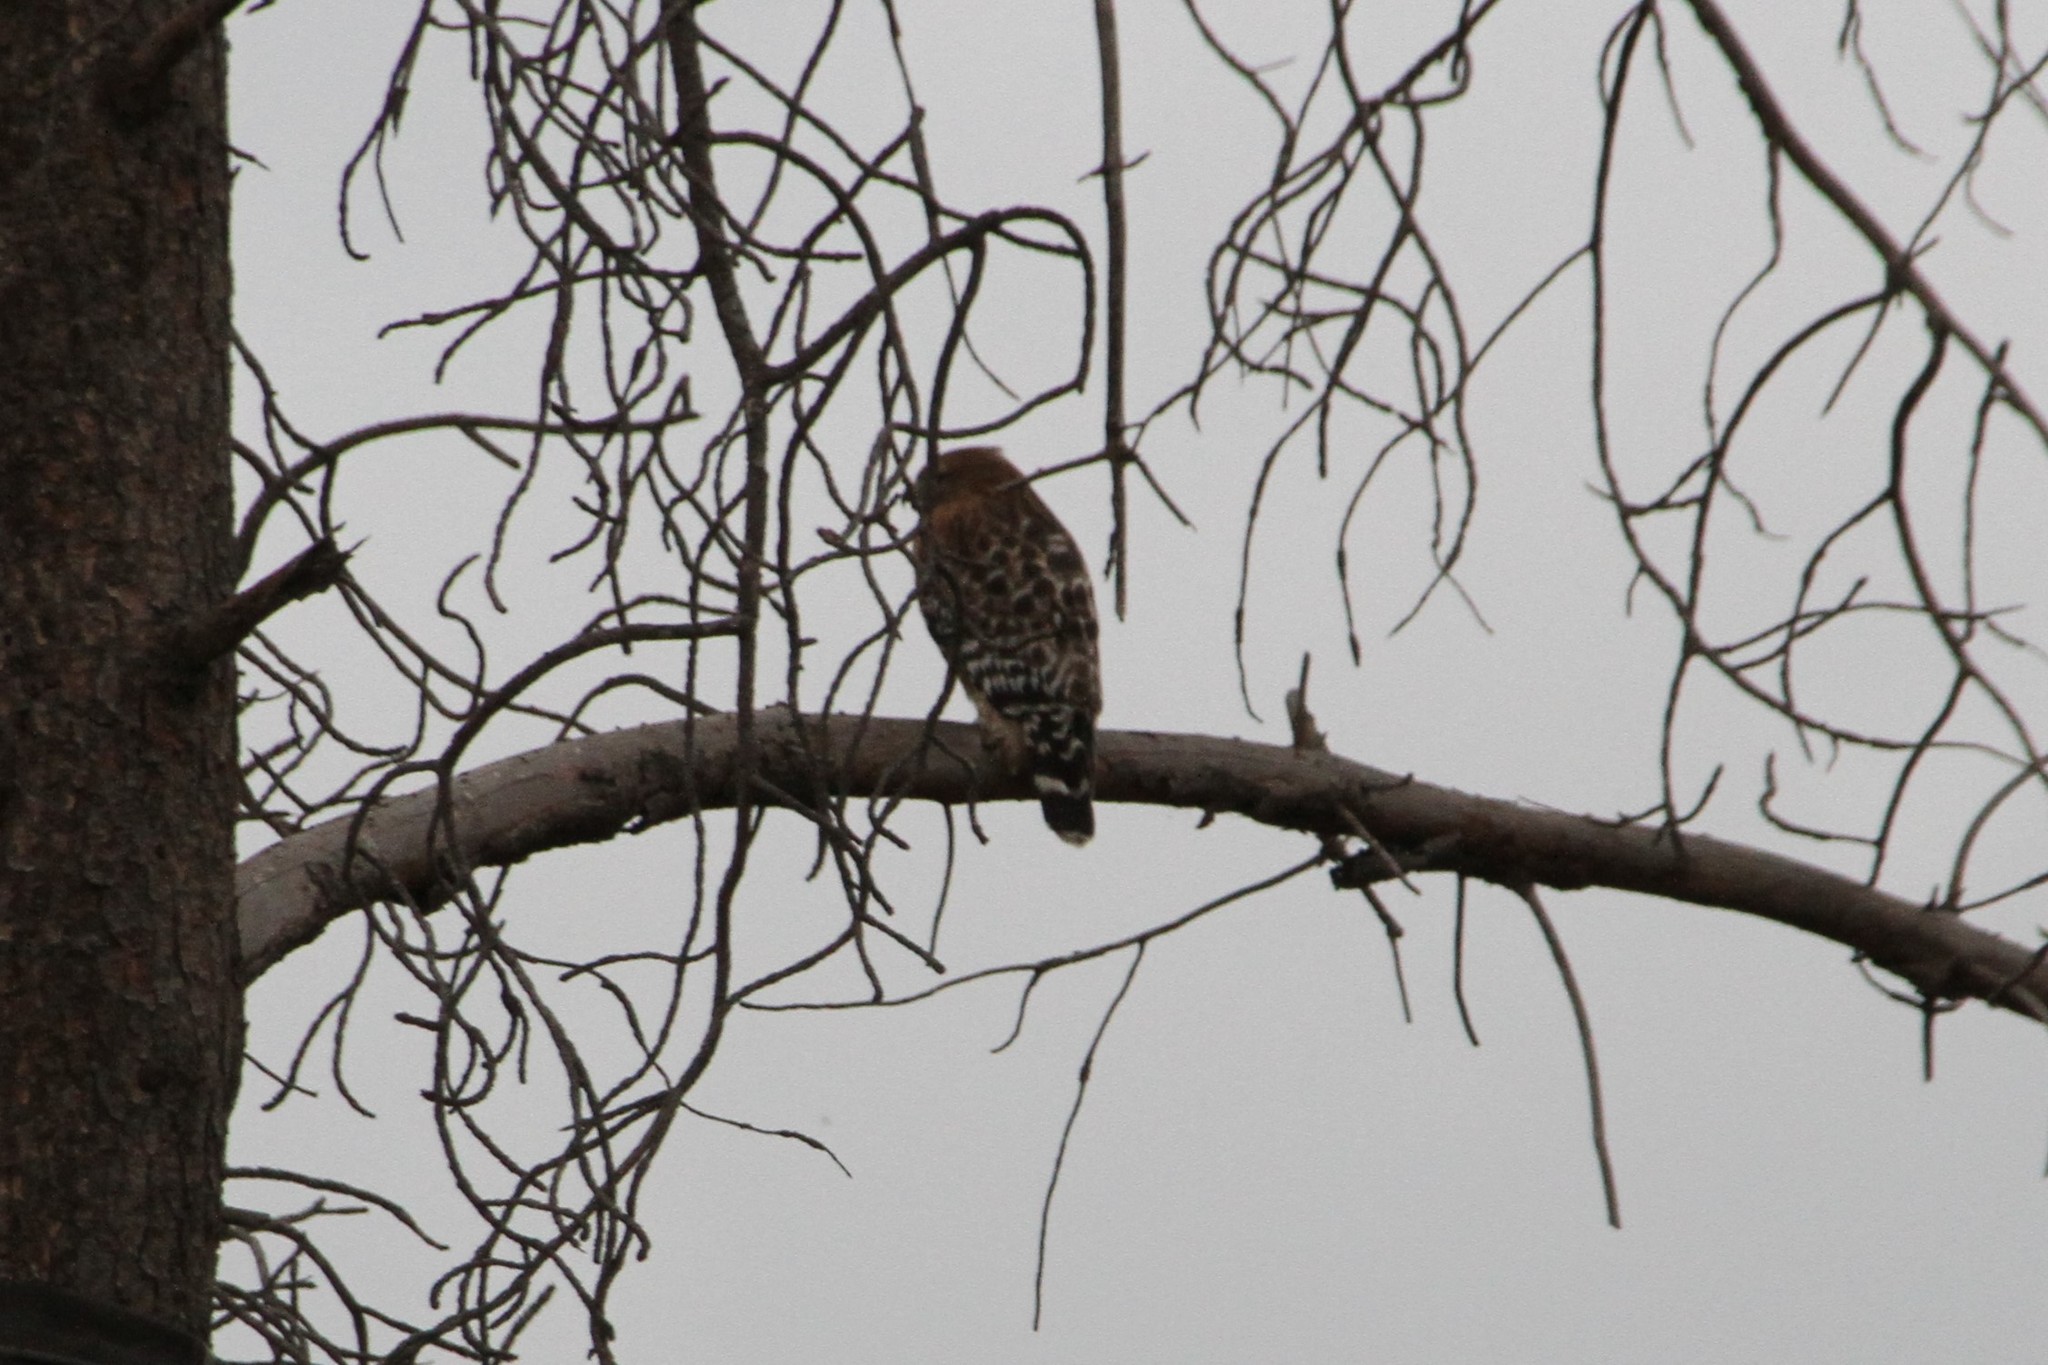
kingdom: Animalia
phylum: Chordata
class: Aves
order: Accipitriformes
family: Accipitridae
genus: Buteo
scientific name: Buteo lineatus
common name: Red-shouldered hawk
